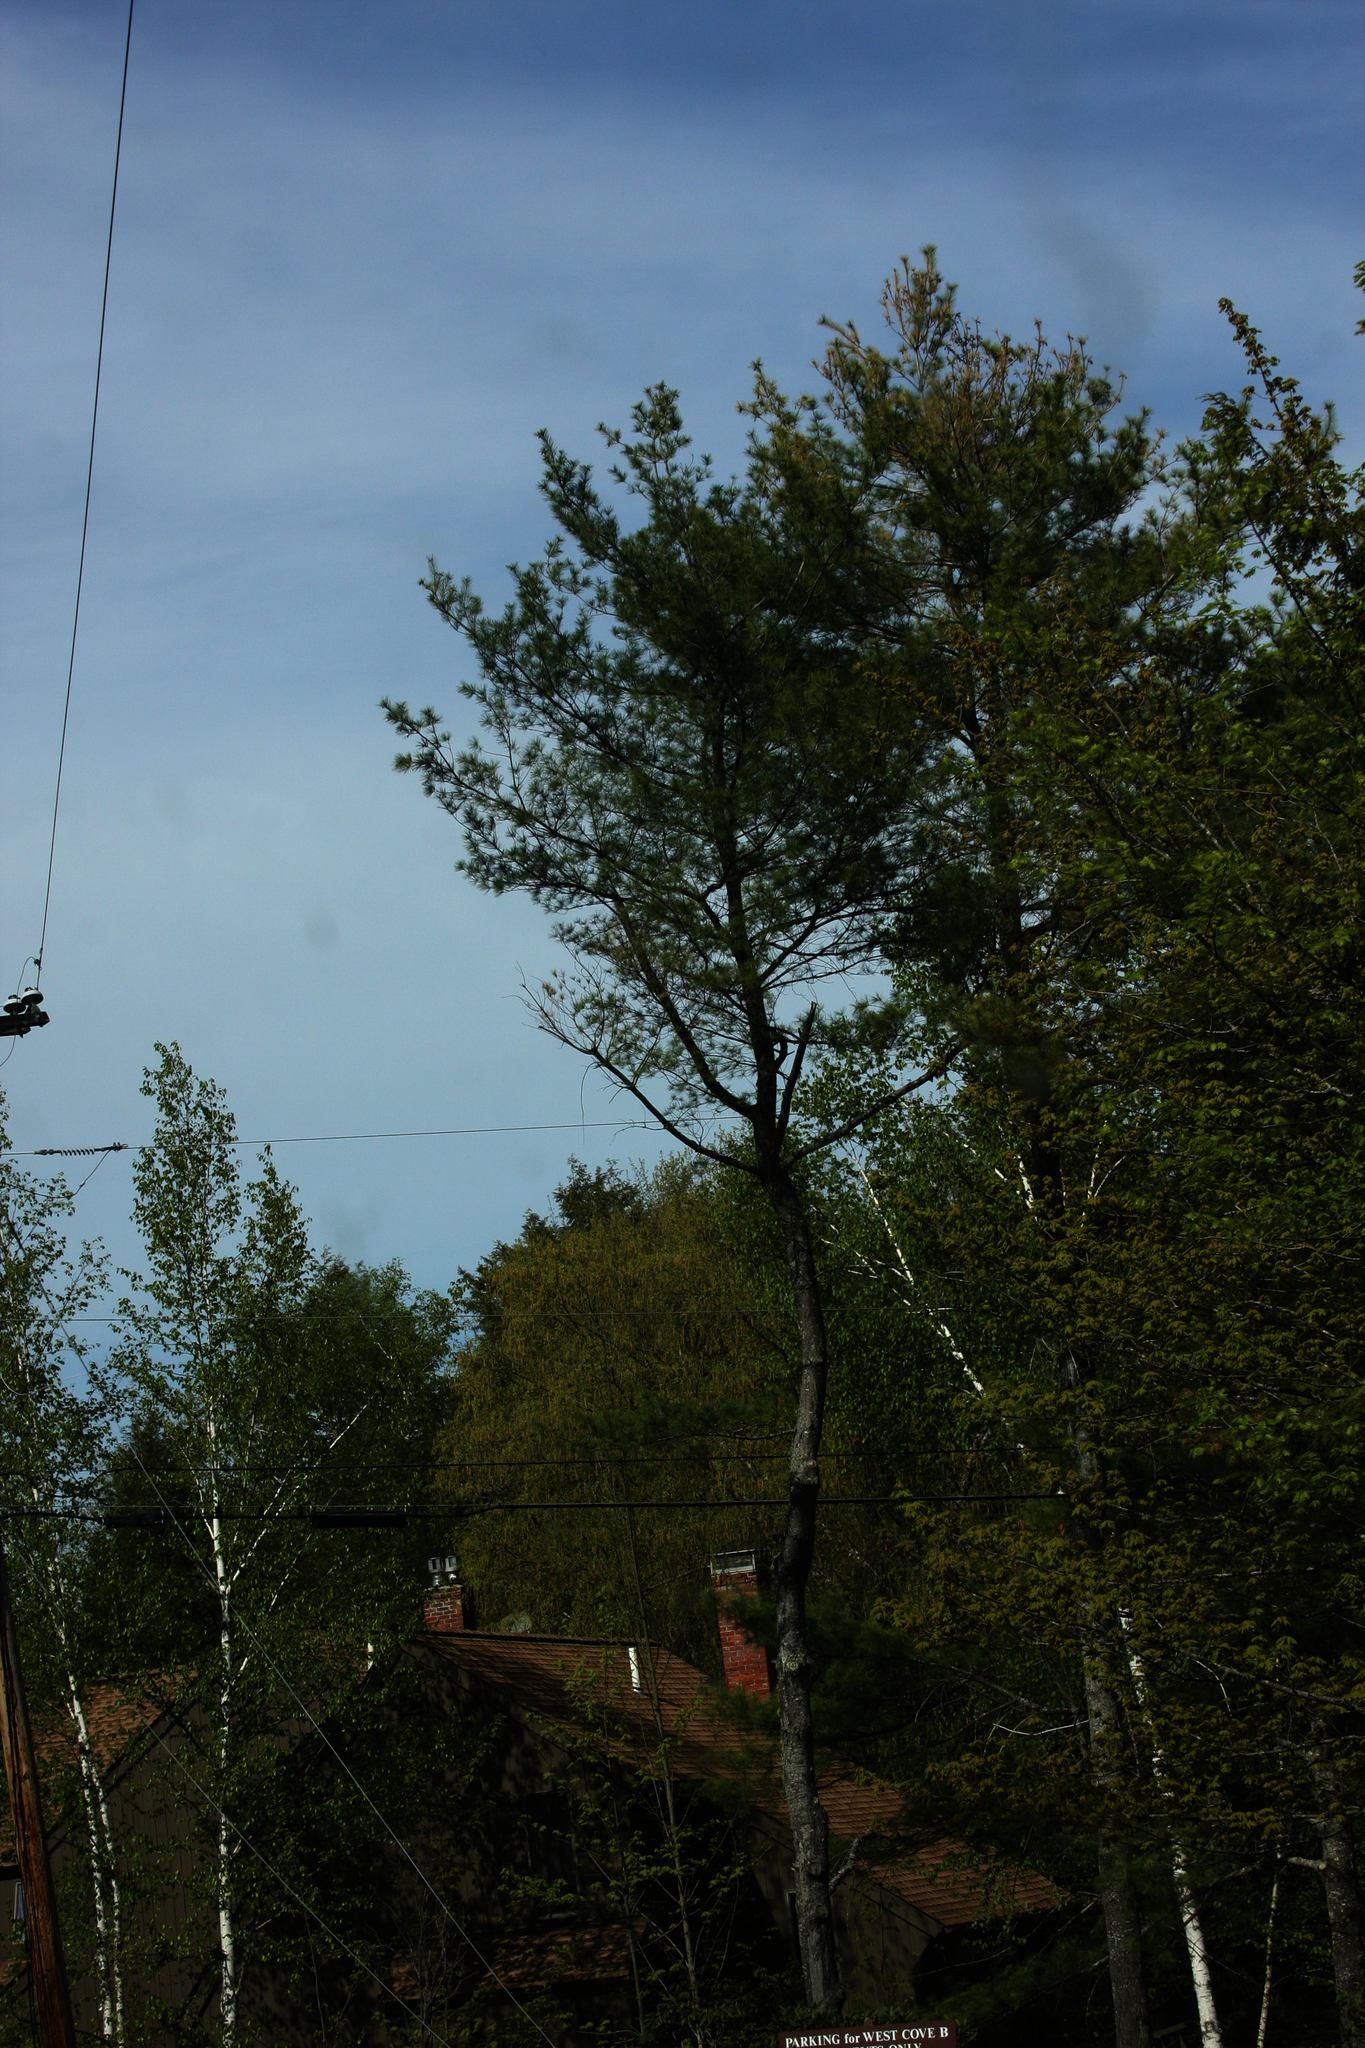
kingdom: Plantae
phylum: Tracheophyta
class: Pinopsida
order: Pinales
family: Pinaceae
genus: Pinus
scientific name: Pinus strobus
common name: Weymouth pine
